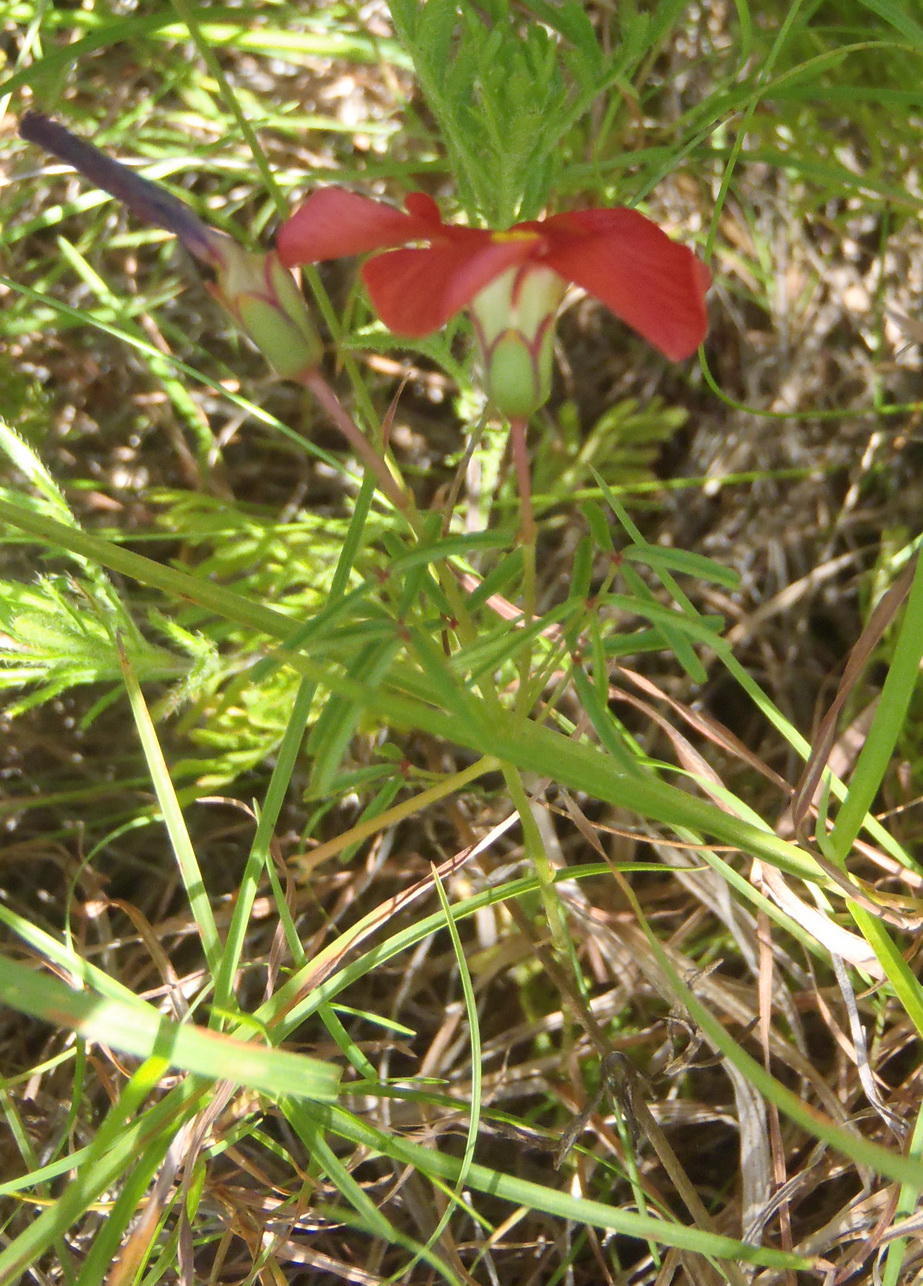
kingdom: Plantae
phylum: Tracheophyta
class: Magnoliopsida
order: Oxalidales
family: Oxalidaceae
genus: Oxalis
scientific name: Oxalis pendulifolia
